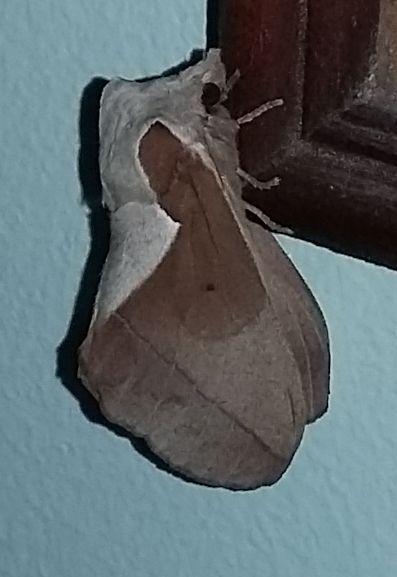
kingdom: Animalia
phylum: Arthropoda
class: Insecta
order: Lepidoptera
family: Lasiocampidae
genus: Stoermeriana
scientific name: Stoermeriana scapulosa
